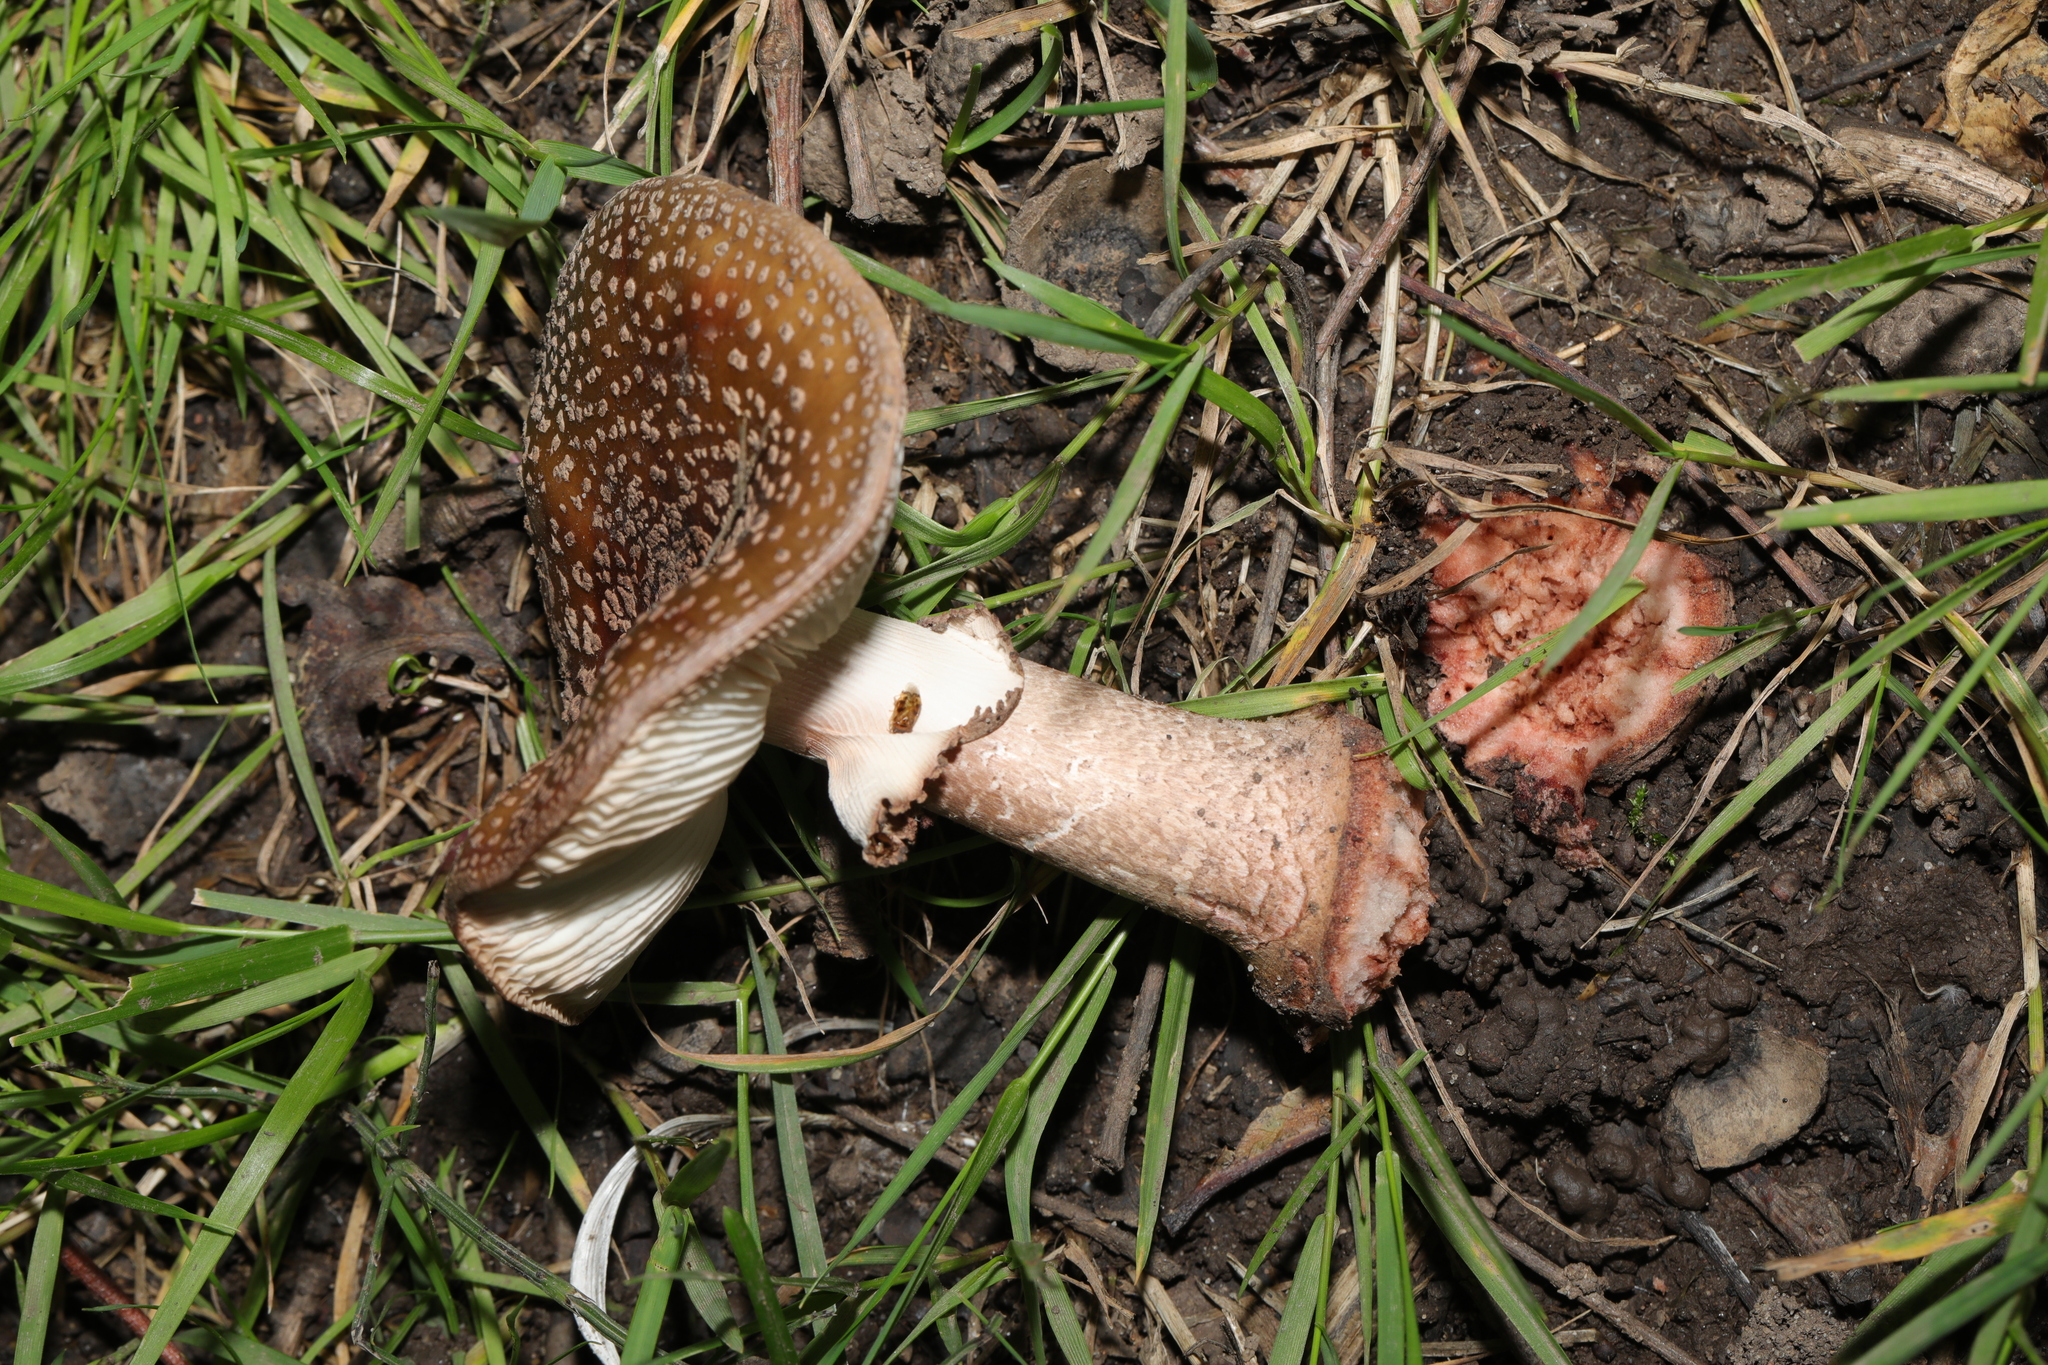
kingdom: Fungi
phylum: Basidiomycota
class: Agaricomycetes
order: Agaricales
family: Amanitaceae
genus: Amanita
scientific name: Amanita rubescens
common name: Blusher
